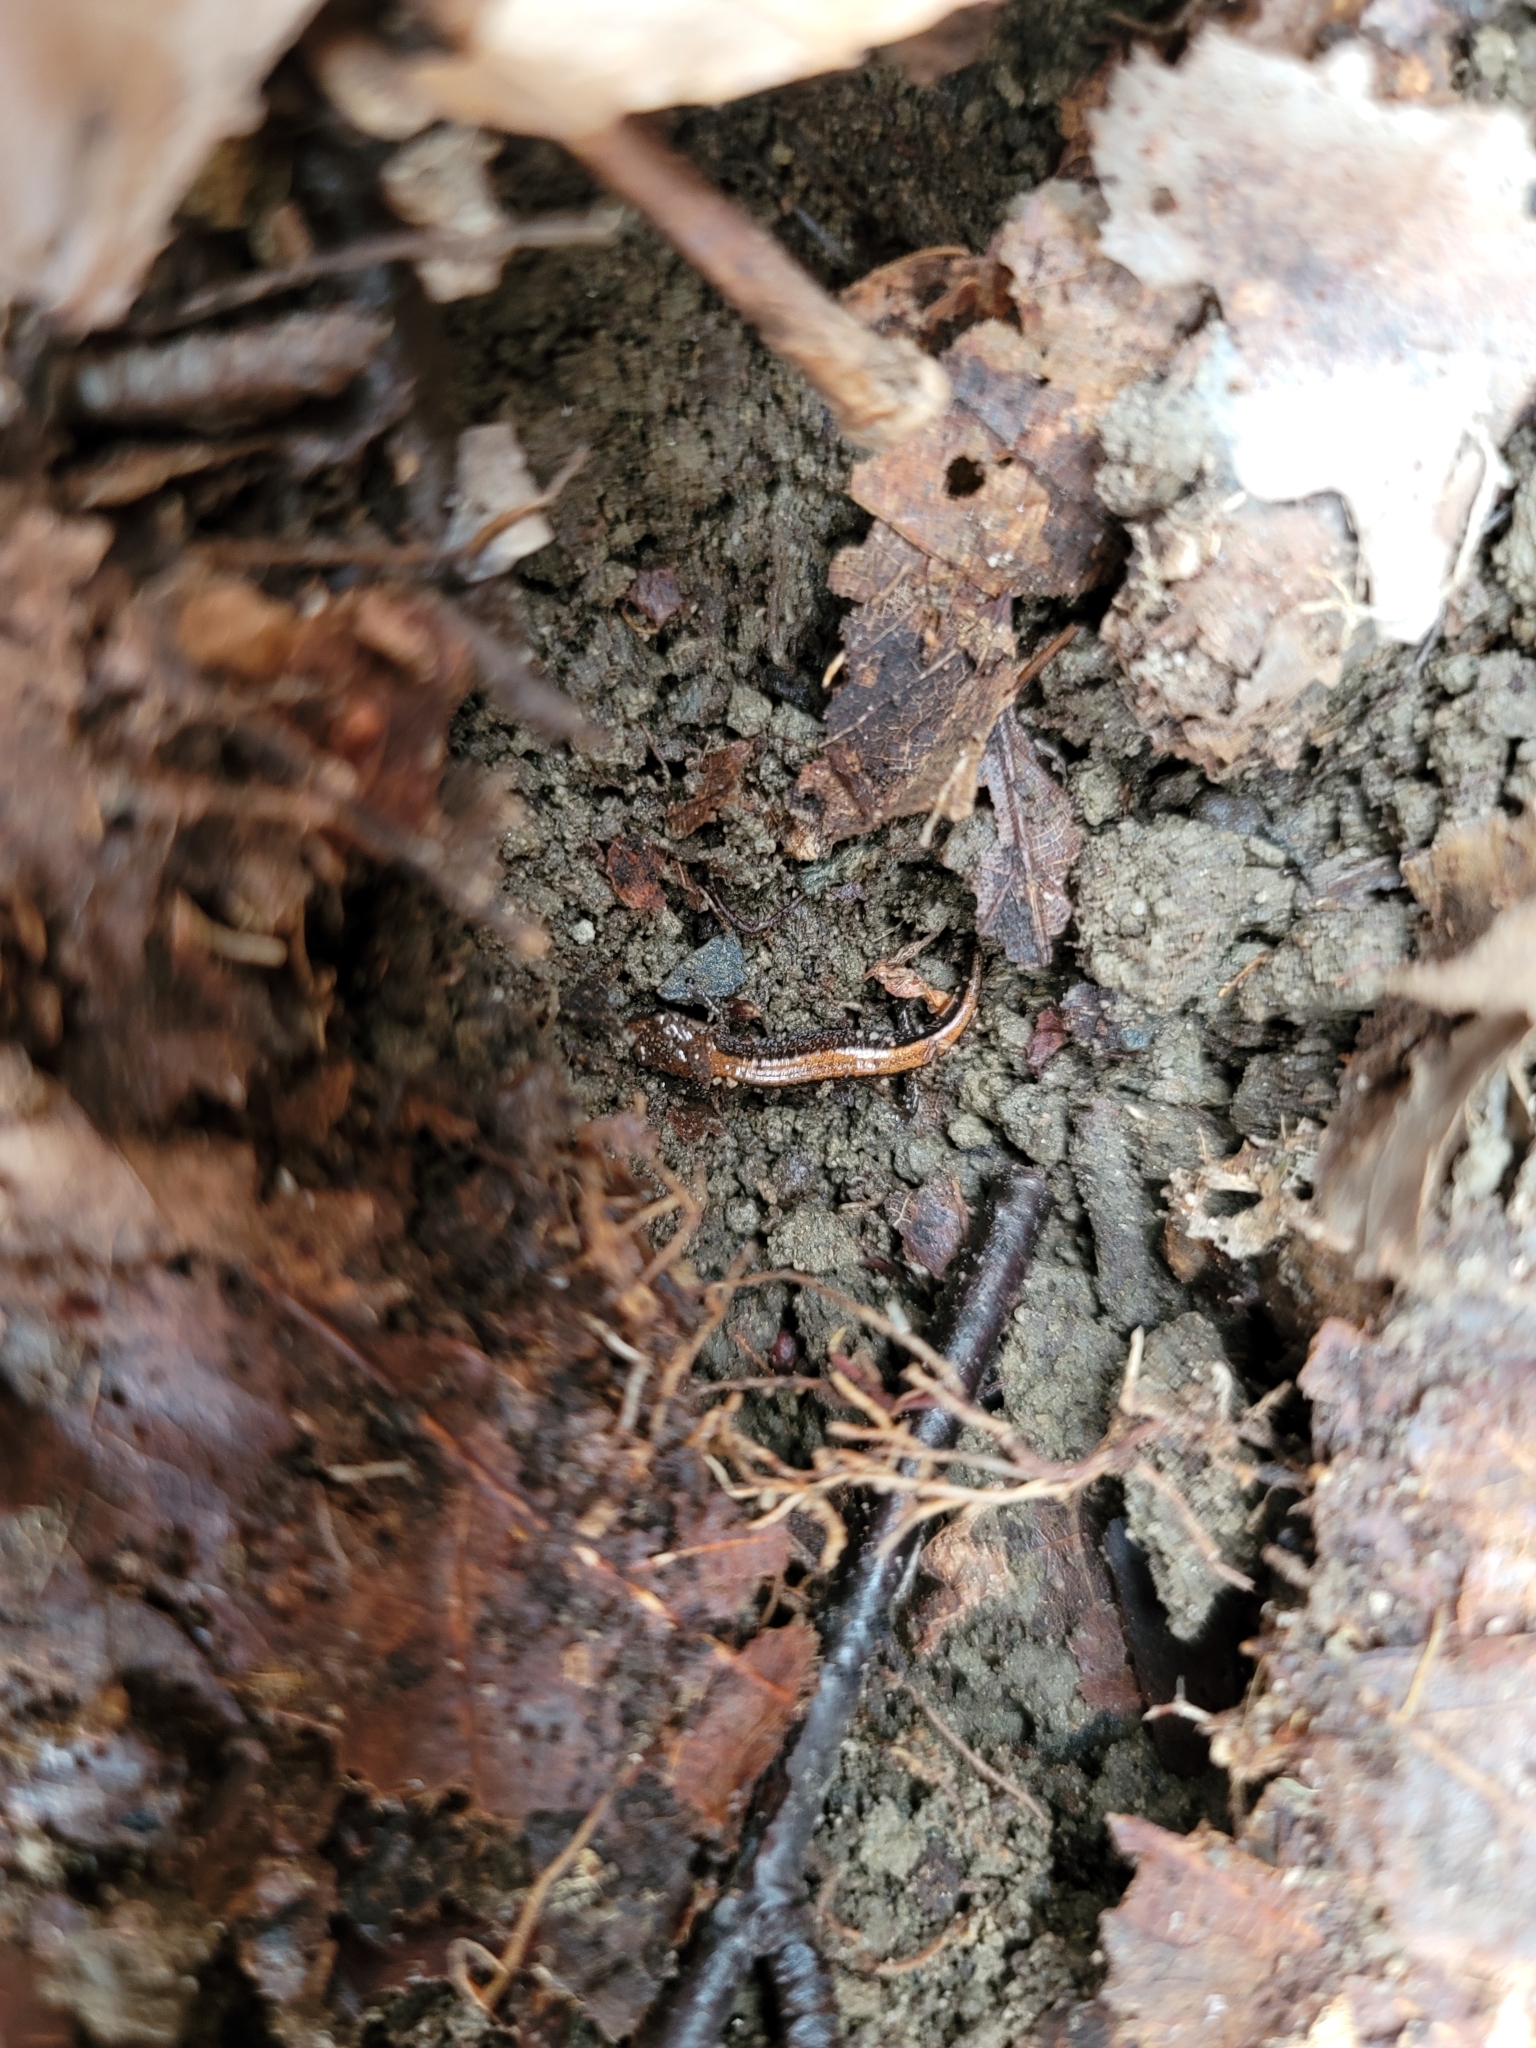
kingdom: Animalia
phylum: Chordata
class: Amphibia
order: Caudata
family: Plethodontidae
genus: Plethodon
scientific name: Plethodon cinereus
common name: Redback salamander
